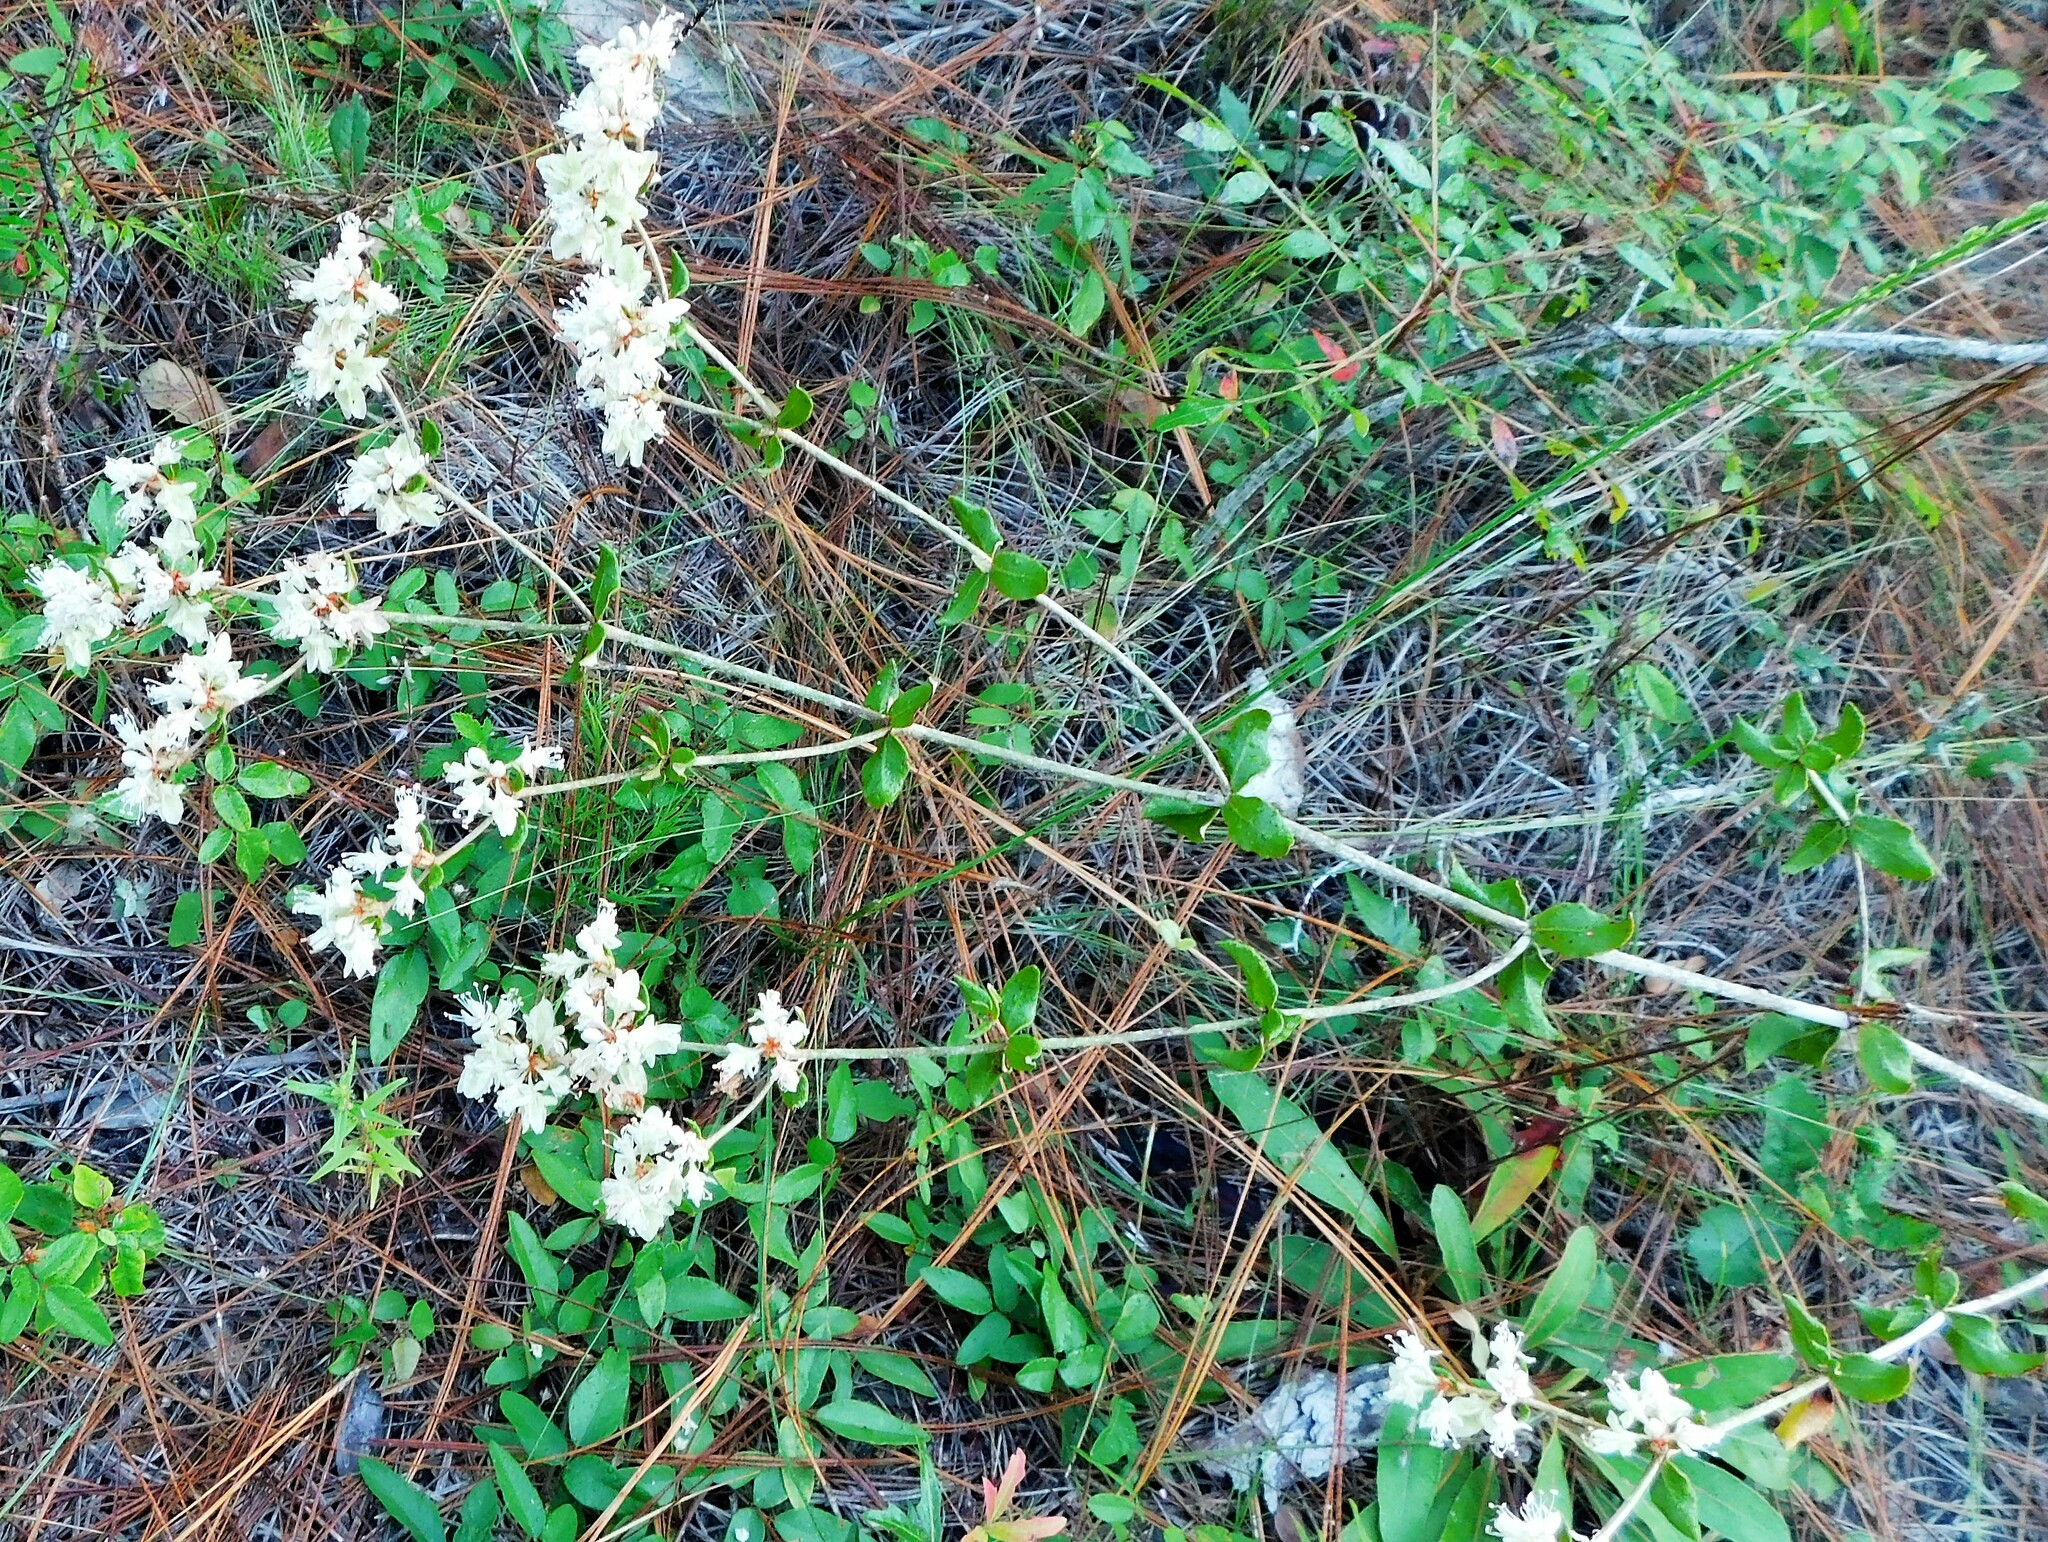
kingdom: Plantae
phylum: Tracheophyta
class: Magnoliopsida
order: Caryophyllales
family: Polygonaceae
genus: Eriogonum
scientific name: Eriogonum tomentosum
